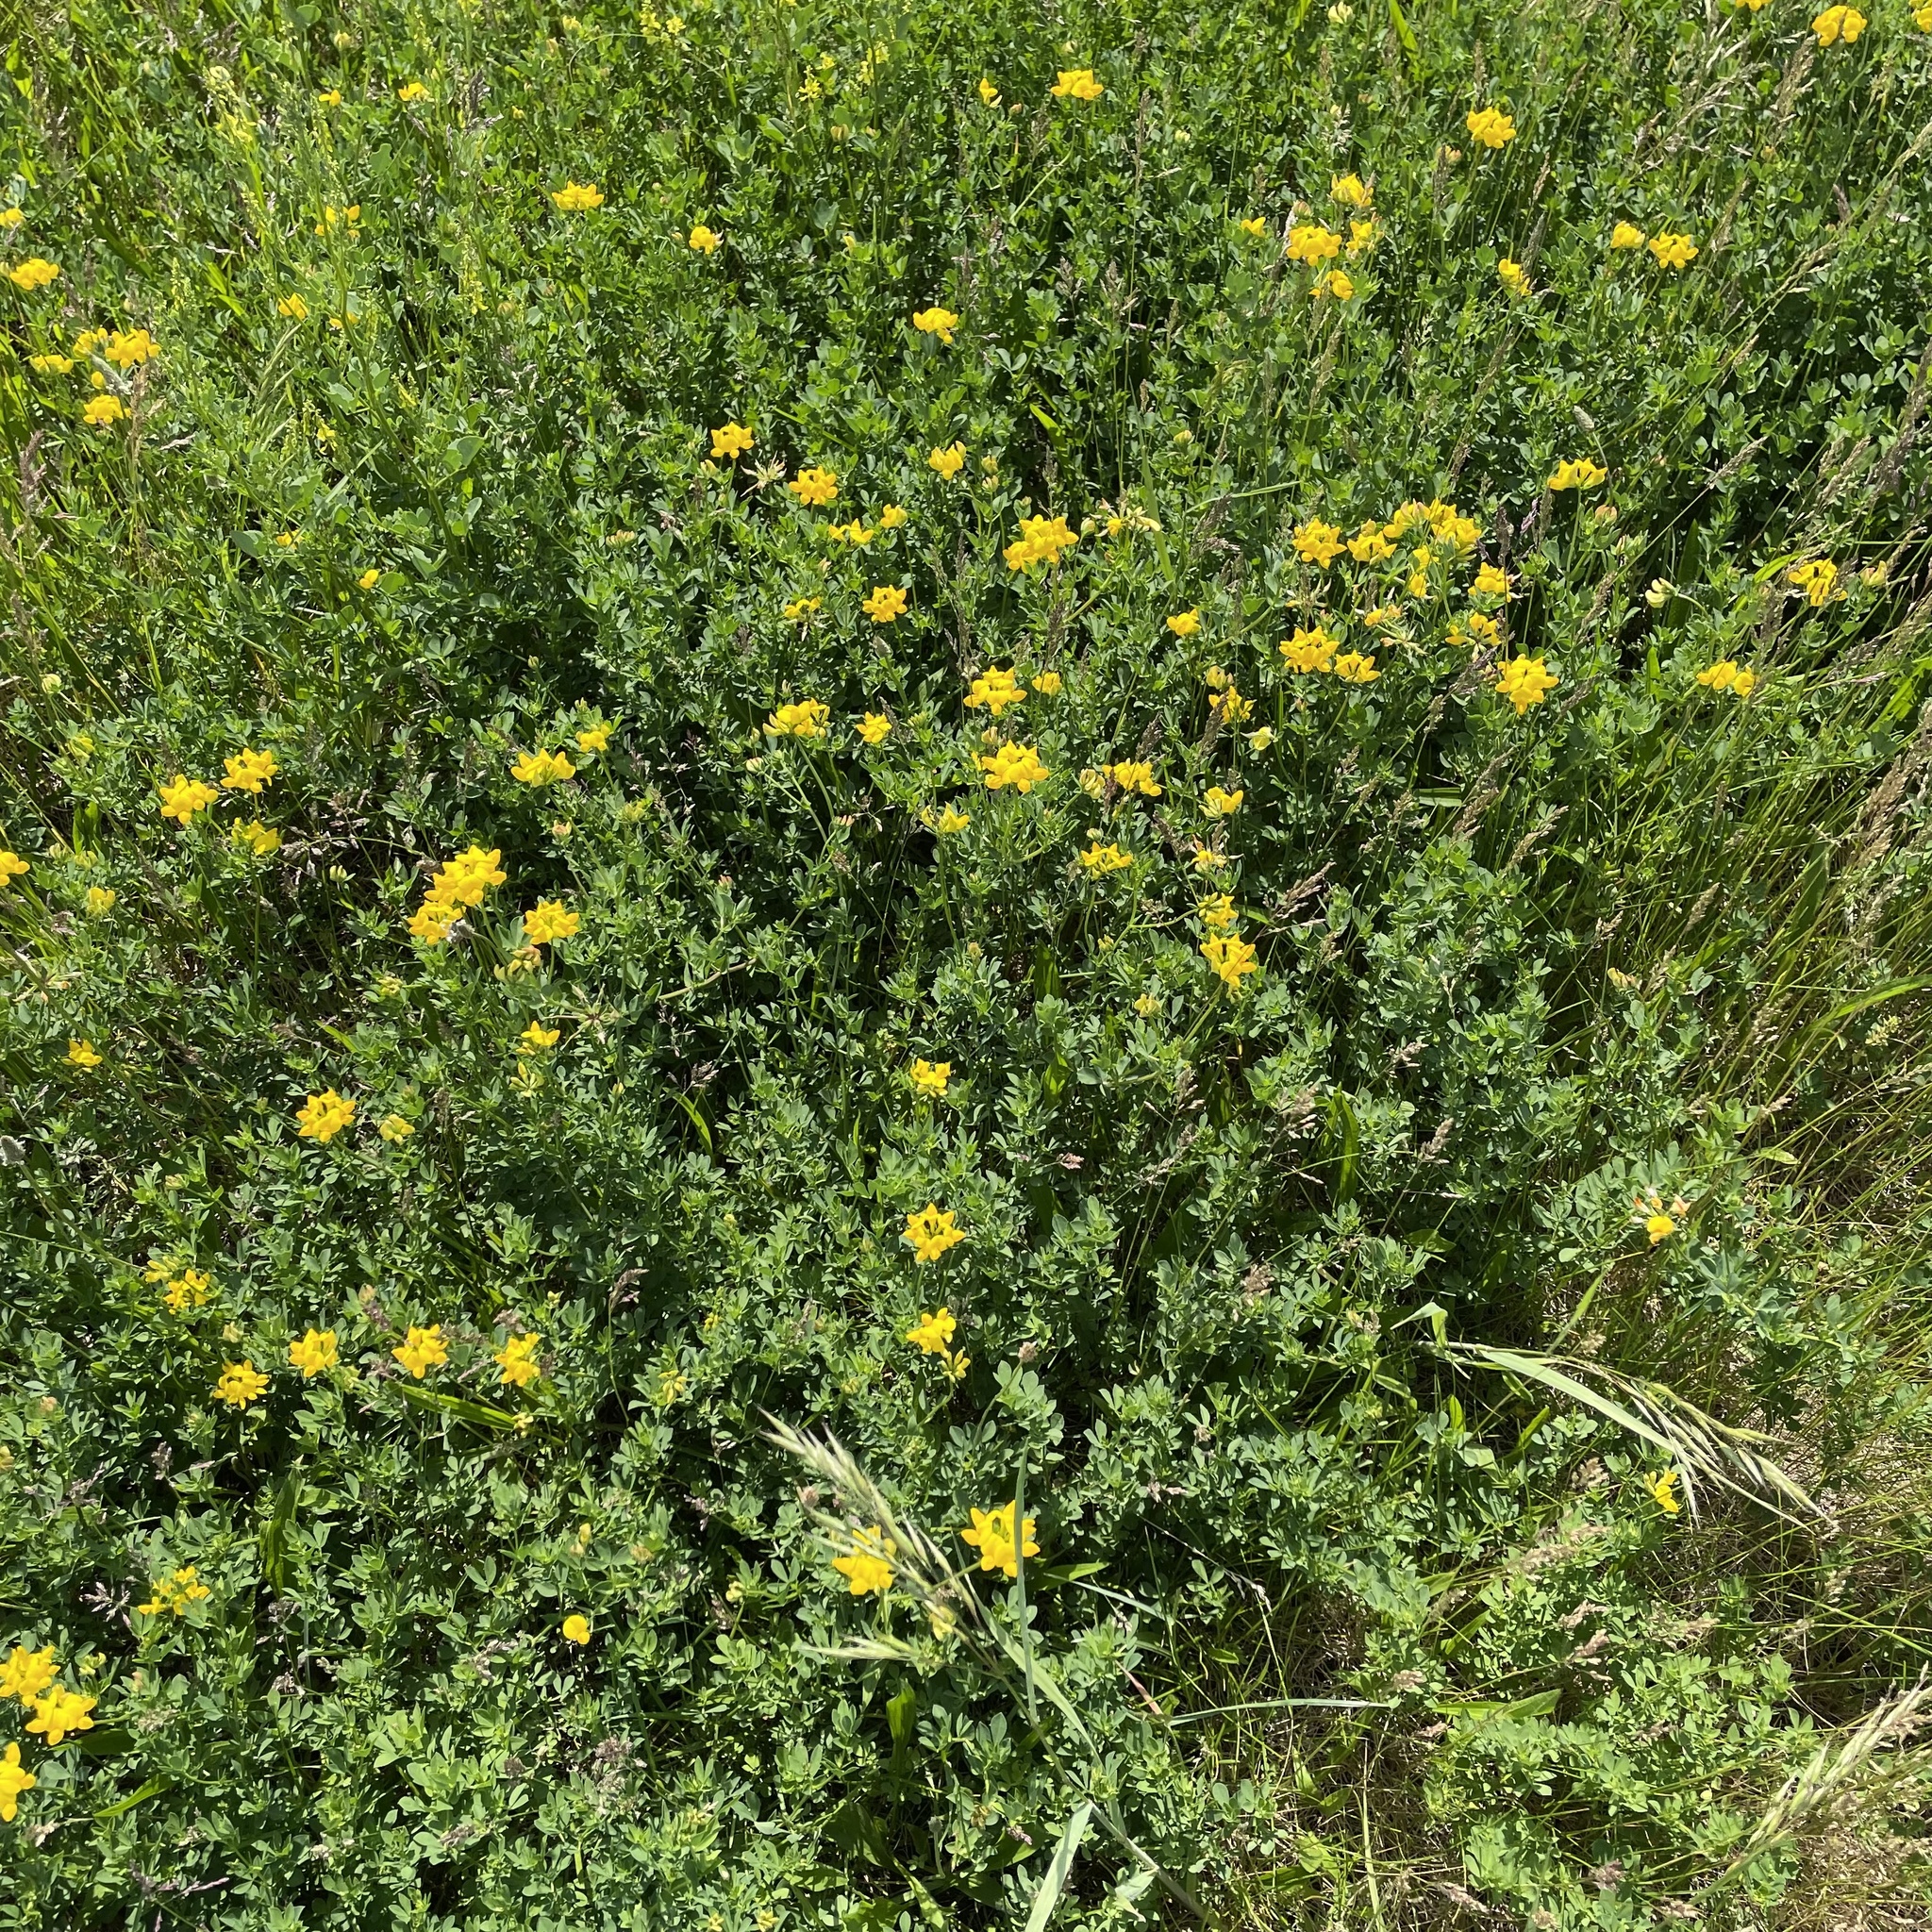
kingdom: Plantae
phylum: Tracheophyta
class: Magnoliopsida
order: Fabales
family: Fabaceae
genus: Lotus
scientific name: Lotus corniculatus
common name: Common bird's-foot-trefoil
